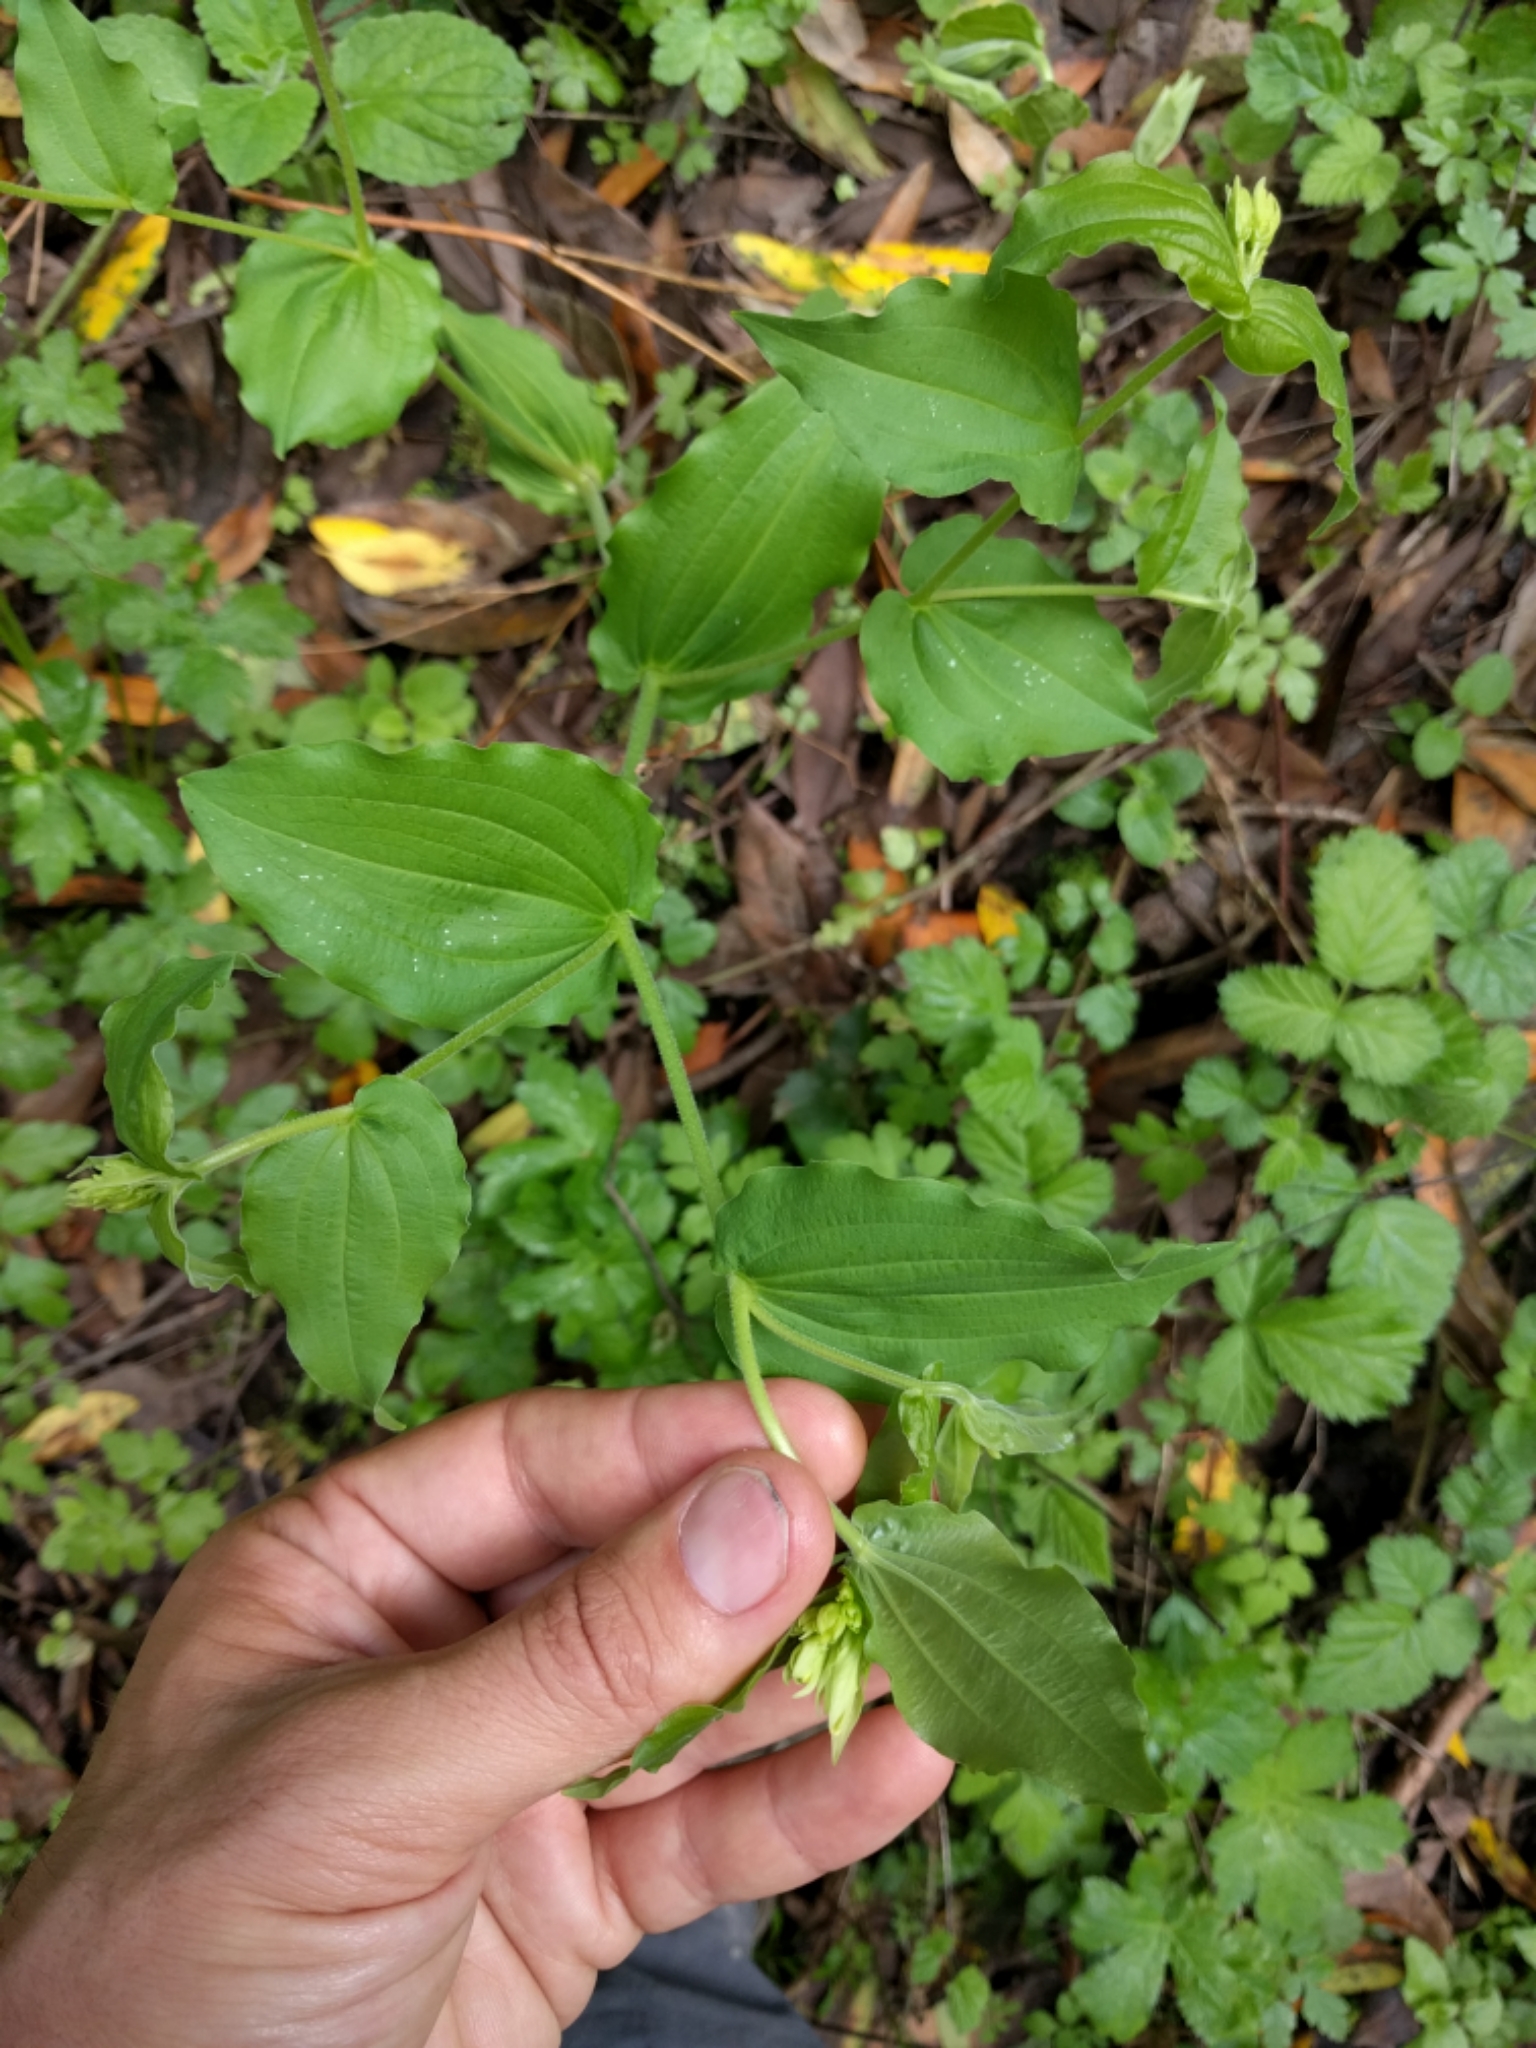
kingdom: Plantae
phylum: Tracheophyta
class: Liliopsida
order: Liliales
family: Liliaceae
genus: Prosartes
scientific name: Prosartes hookeri
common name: Fairy-bells
